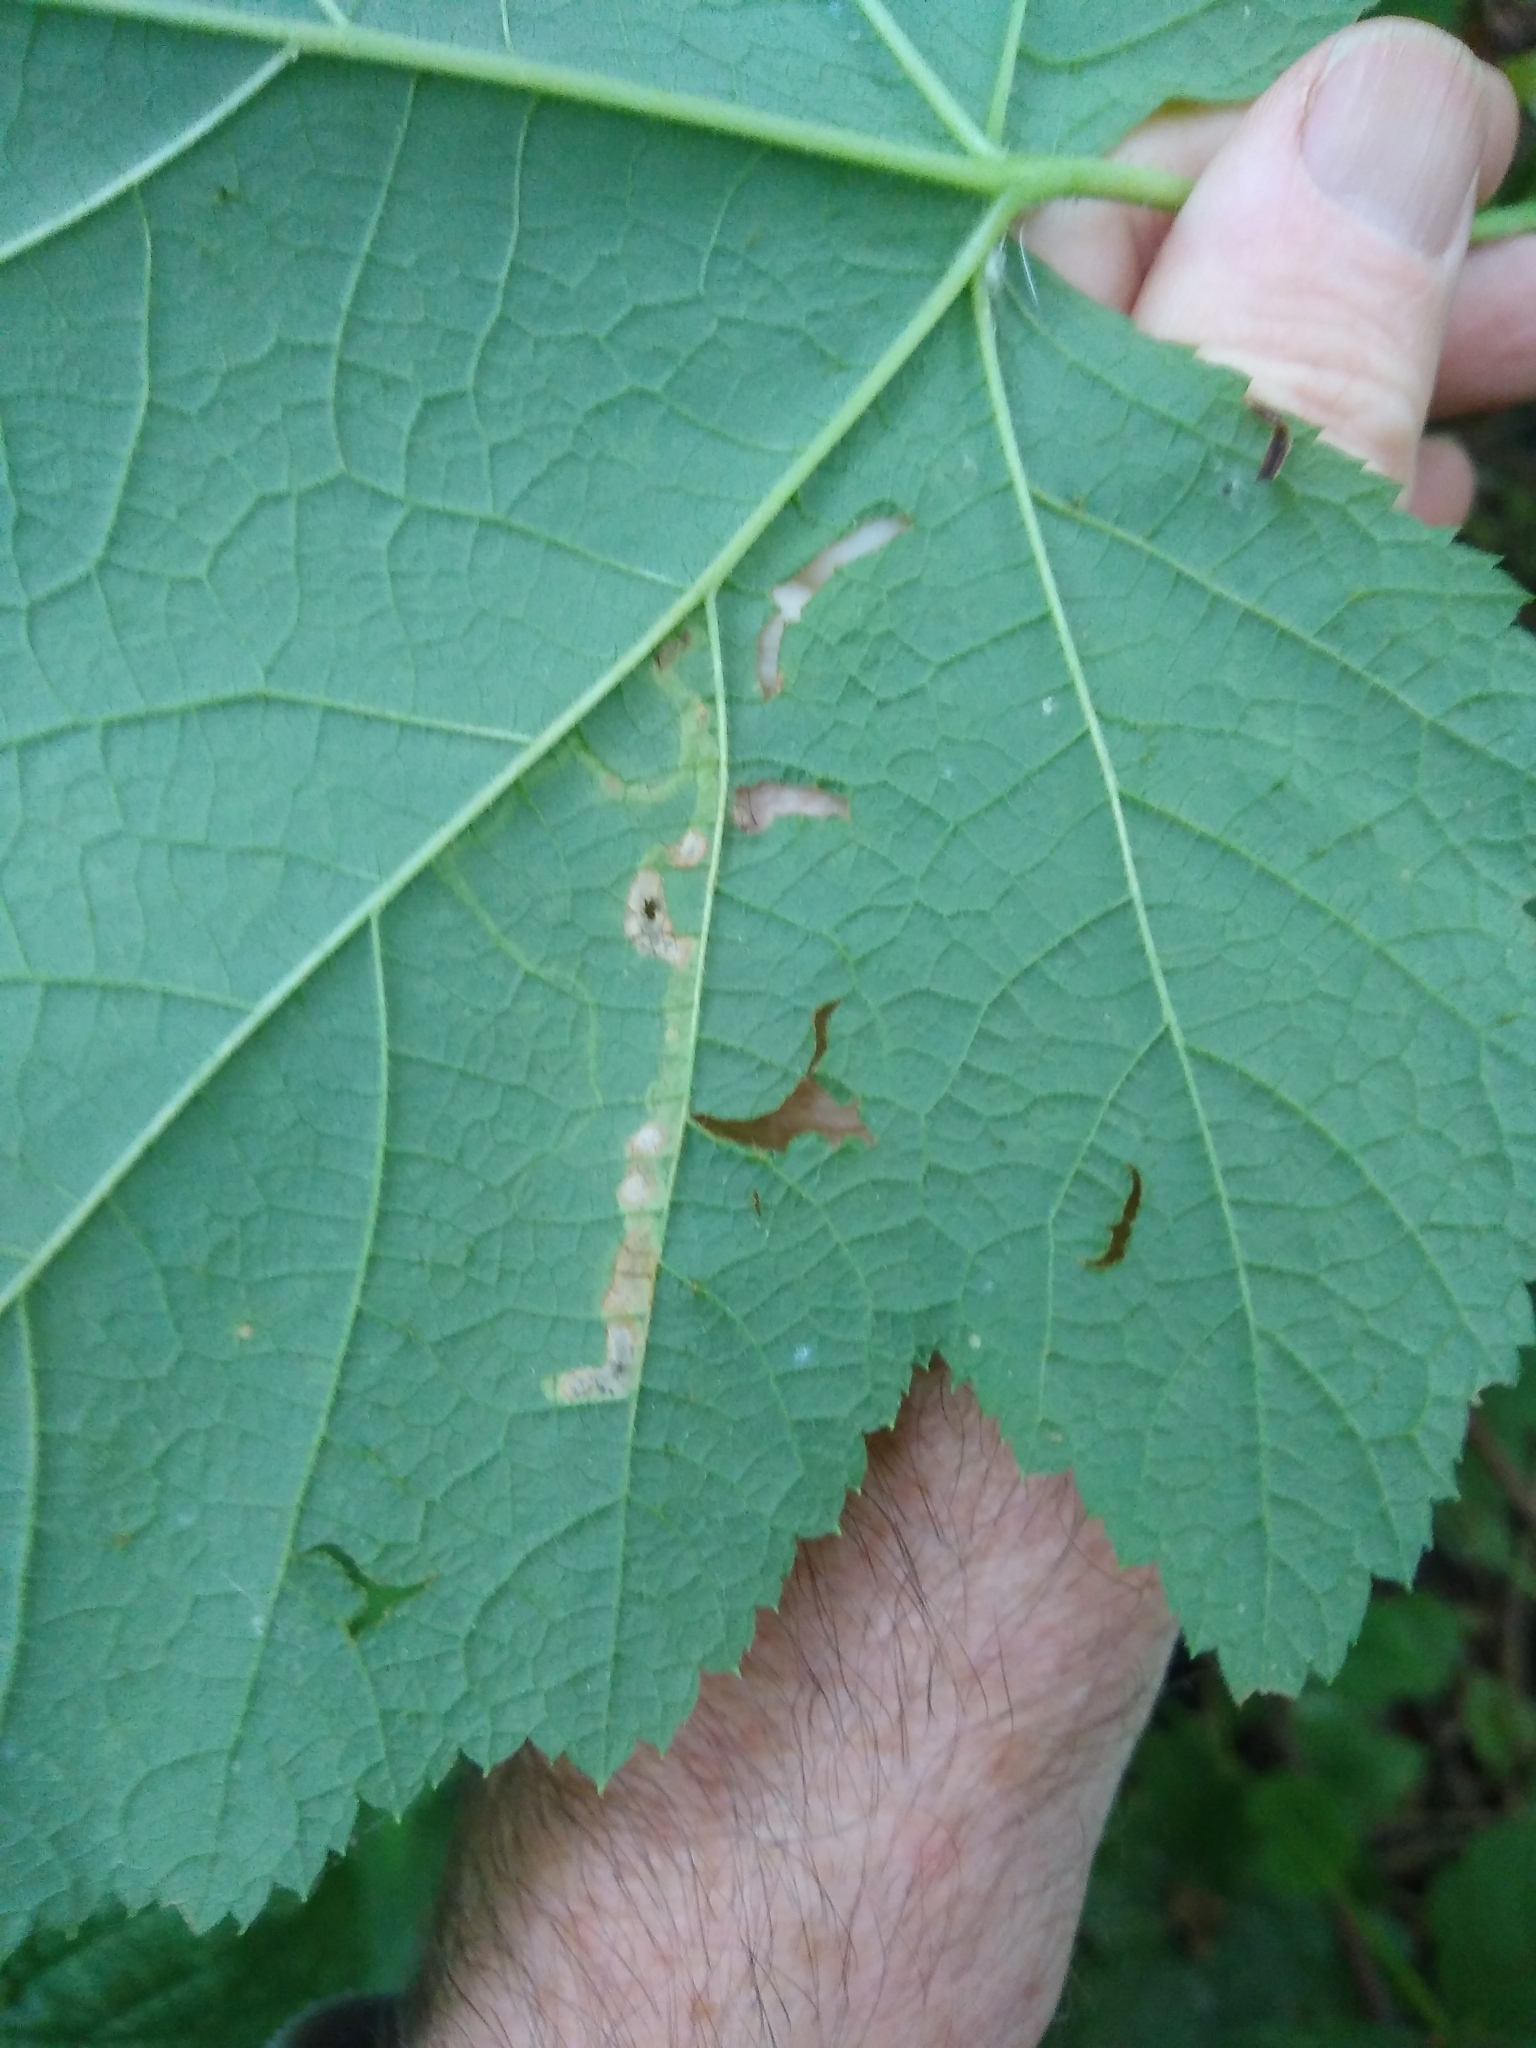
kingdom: Animalia
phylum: Arthropoda
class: Insecta
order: Diptera
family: Agromyzidae
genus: Agromyza
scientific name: Agromyza vockerothi
